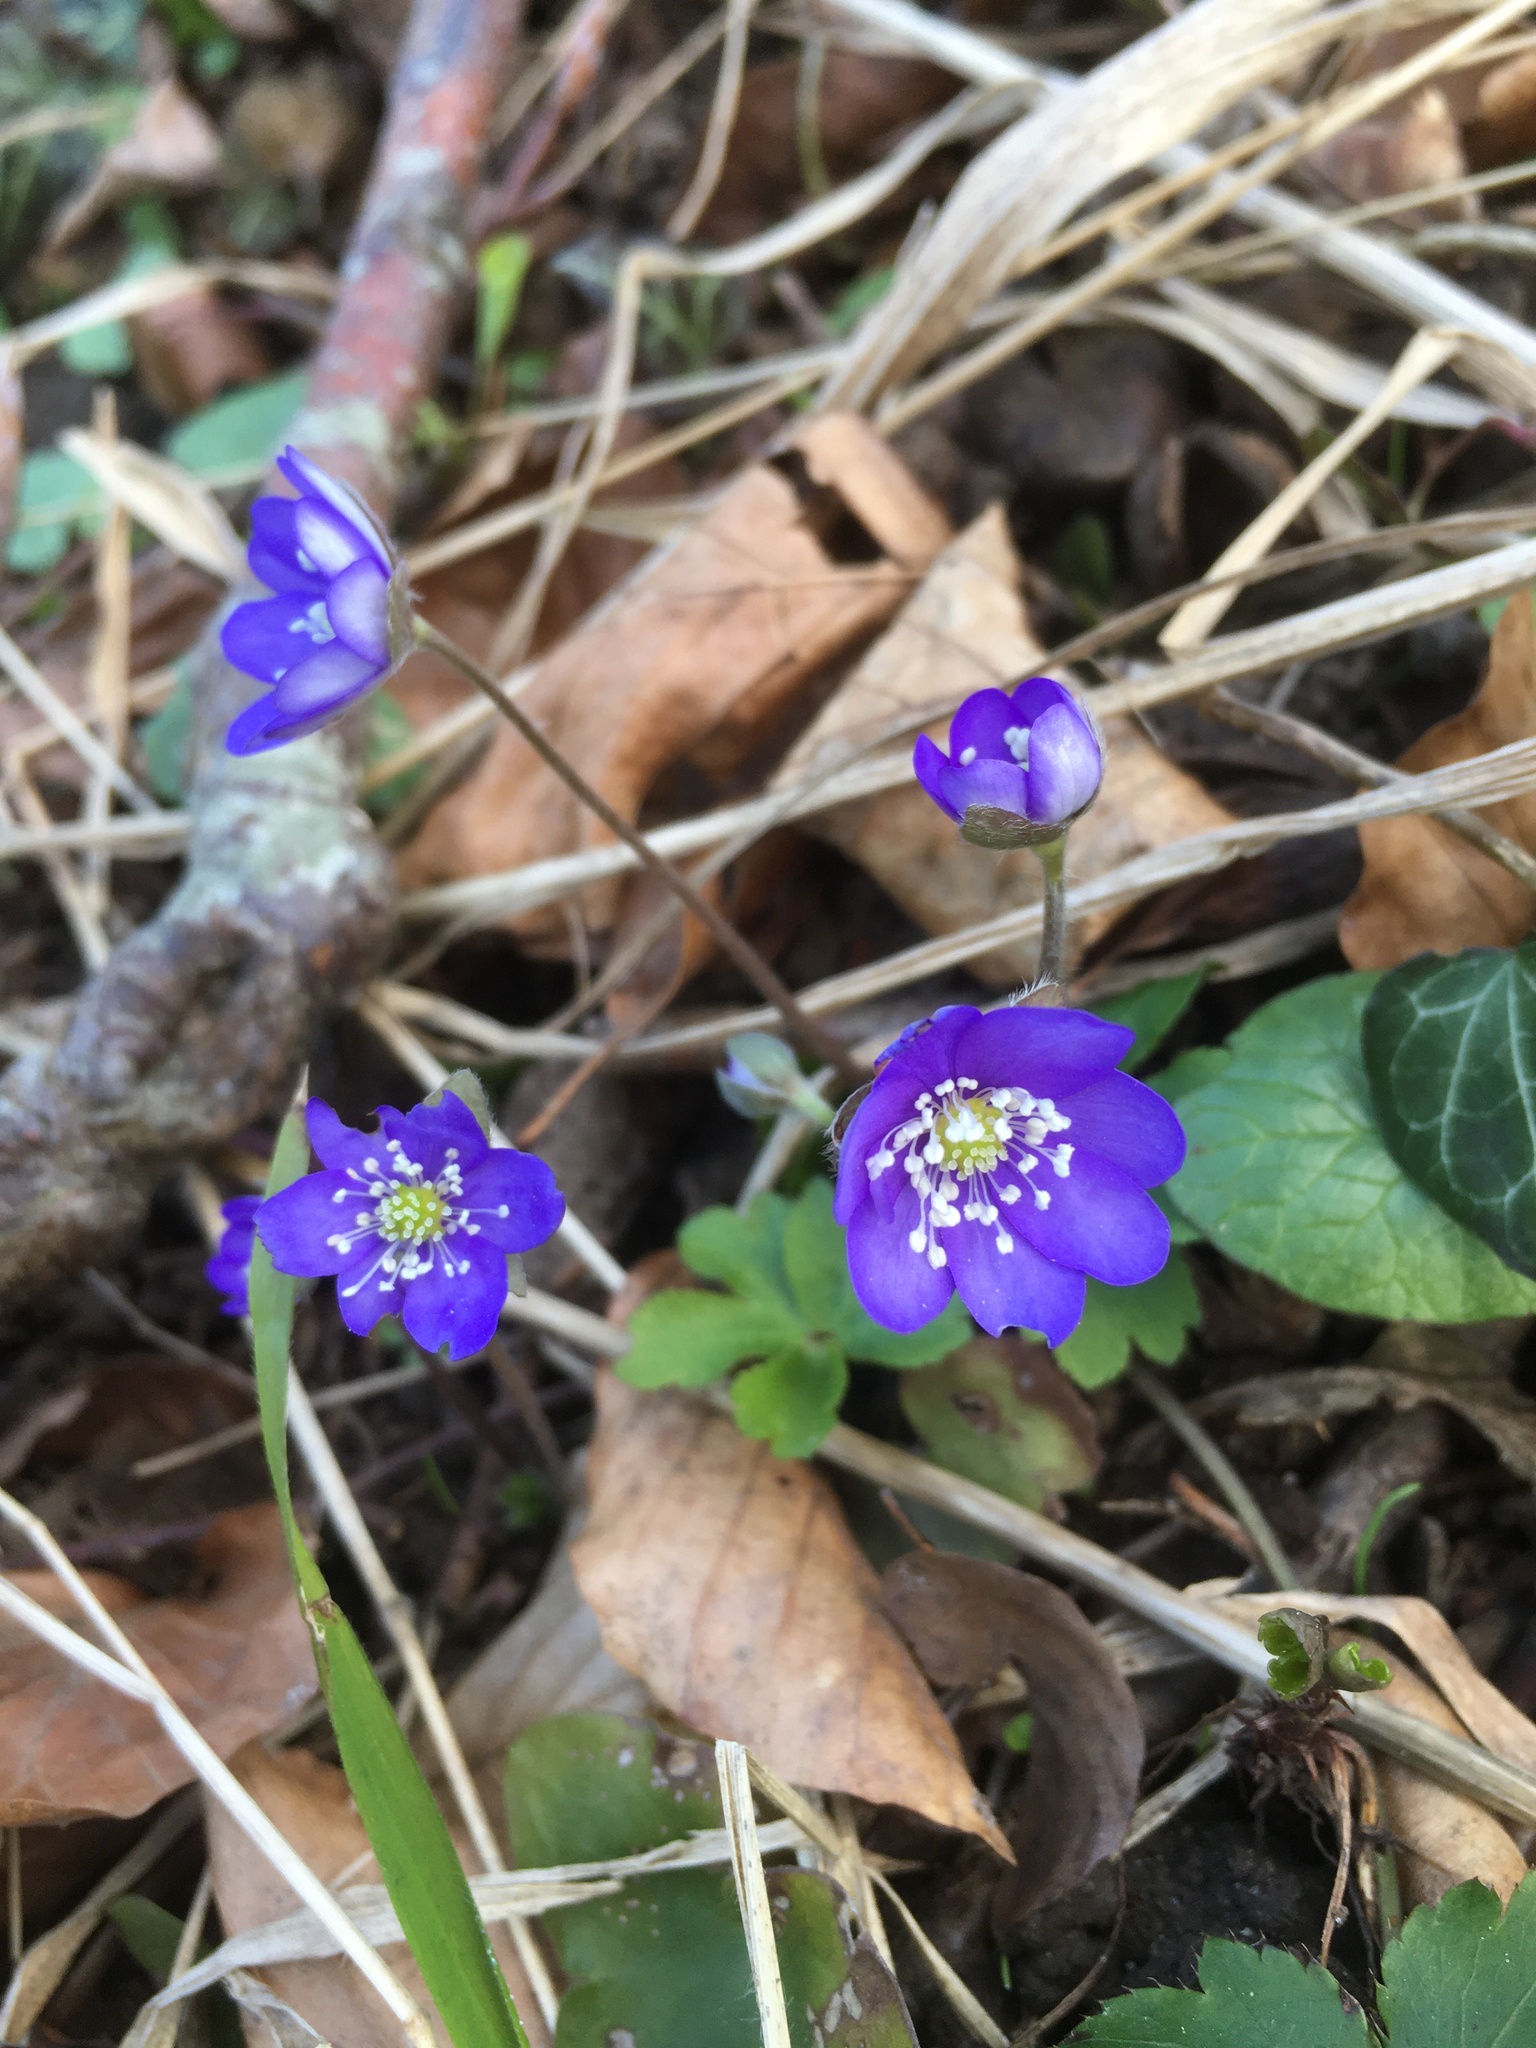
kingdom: Plantae
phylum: Tracheophyta
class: Magnoliopsida
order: Ranunculales
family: Ranunculaceae
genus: Hepatica
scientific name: Hepatica nobilis
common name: Liverleaf
